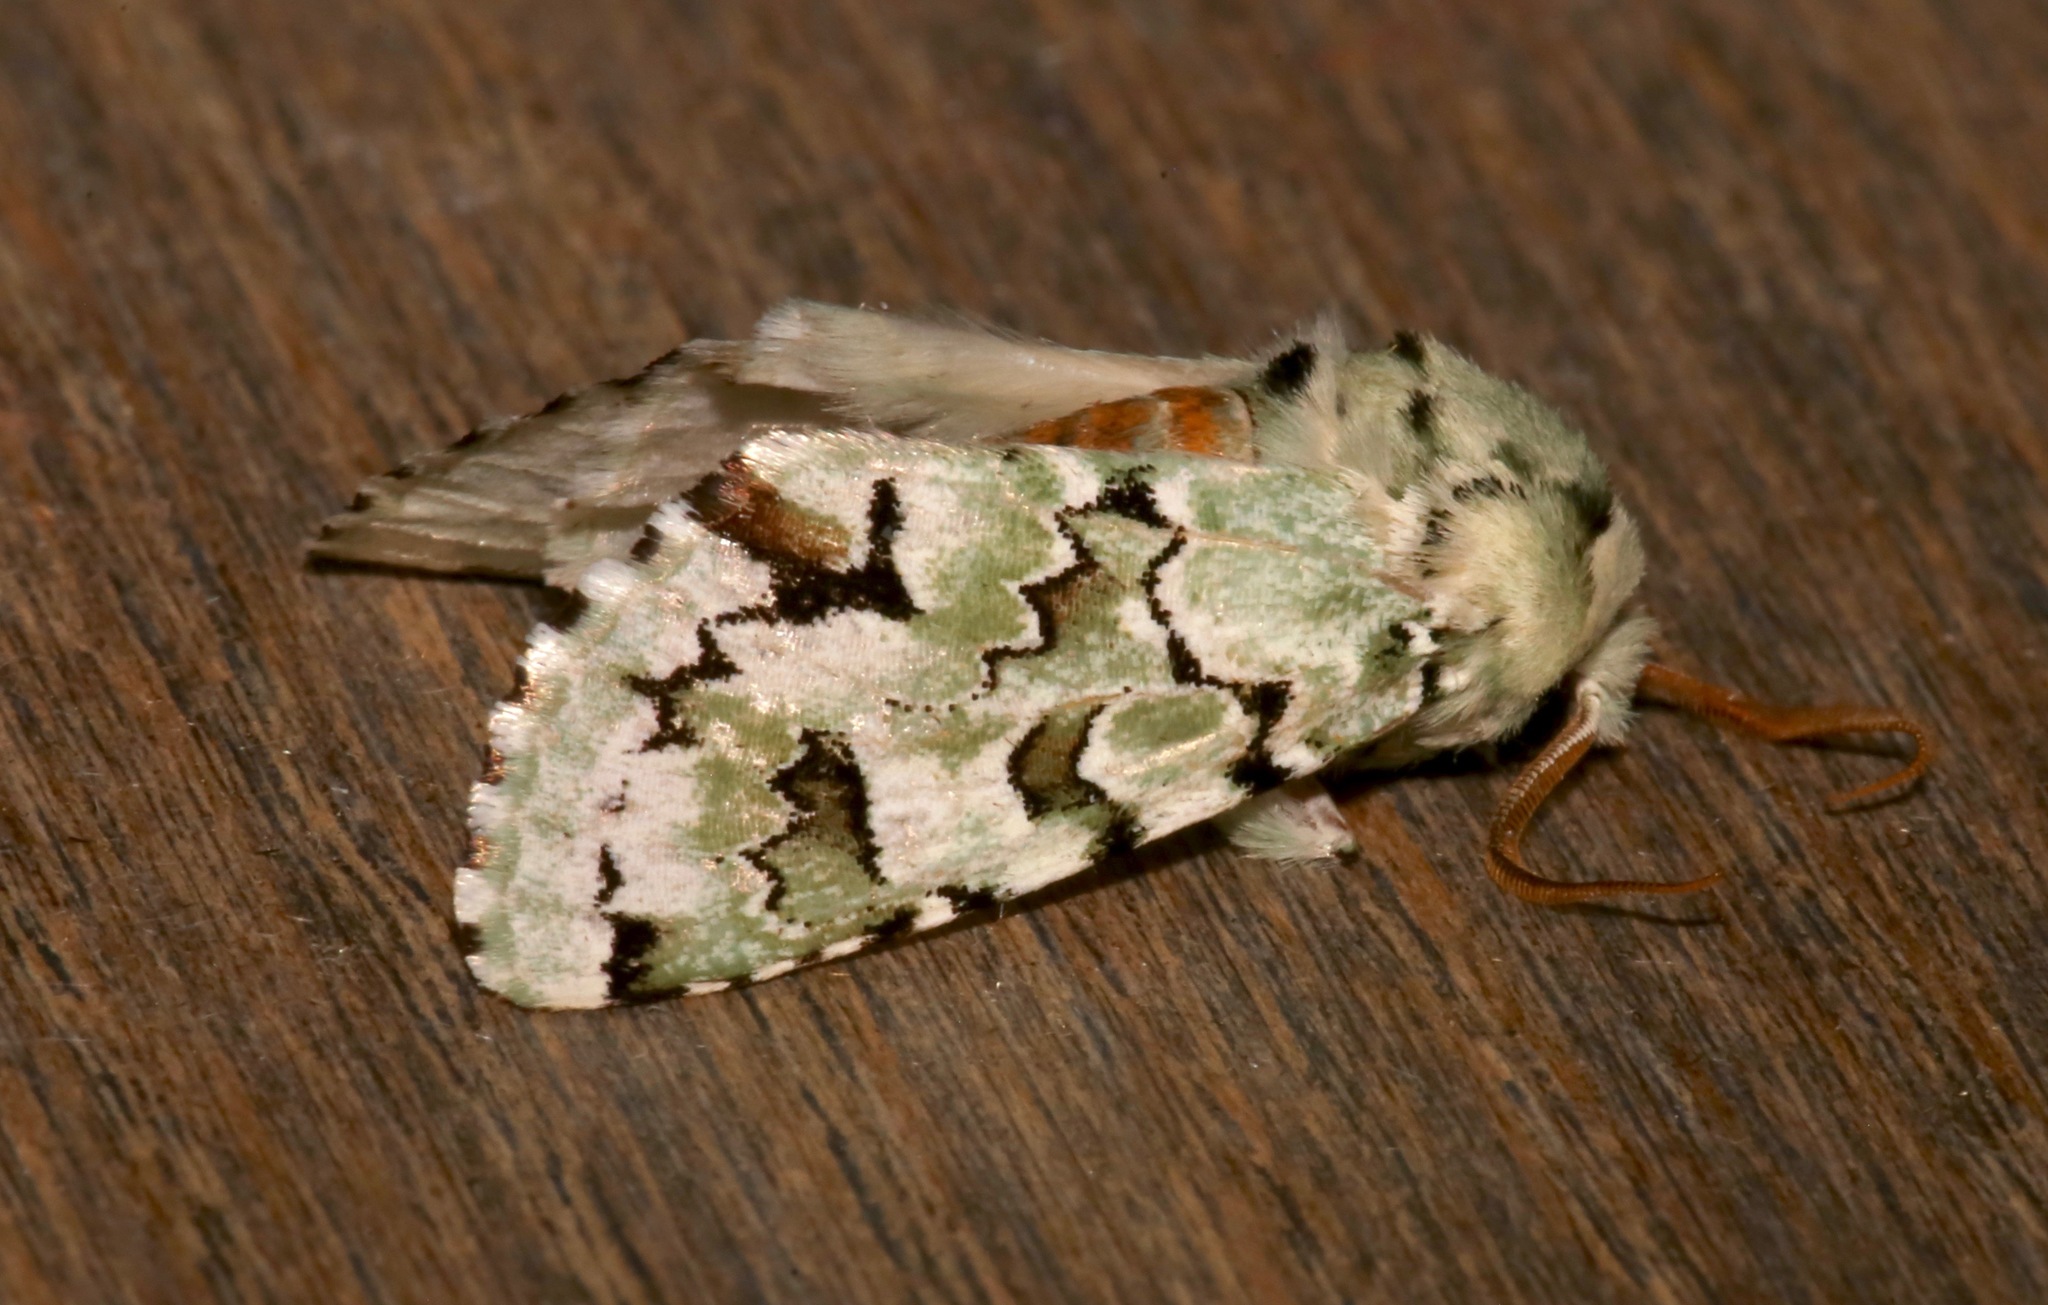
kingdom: Animalia
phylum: Arthropoda
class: Insecta
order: Lepidoptera
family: Noctuidae
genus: Miracavira
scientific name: Miracavira brillians
